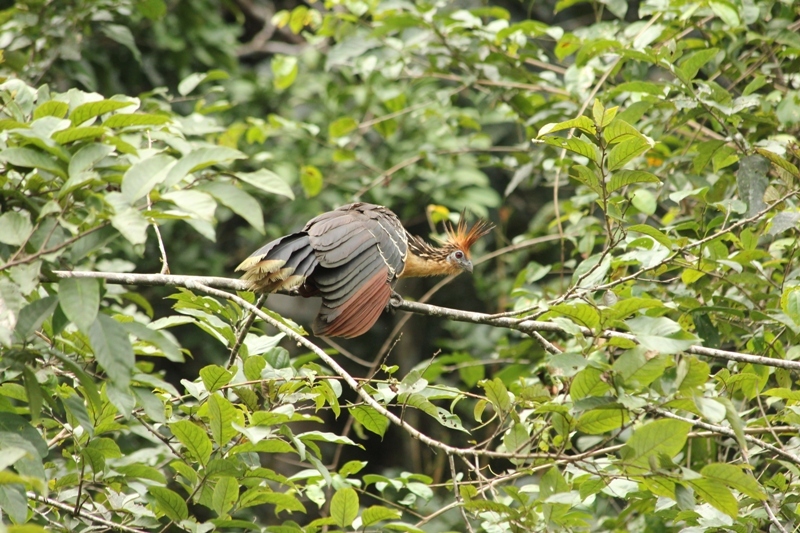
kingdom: Animalia
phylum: Chordata
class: Aves
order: Opisthocomiformes
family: Opisthocomidae
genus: Opisthocomus
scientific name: Opisthocomus hoazin
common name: Hoatzin
